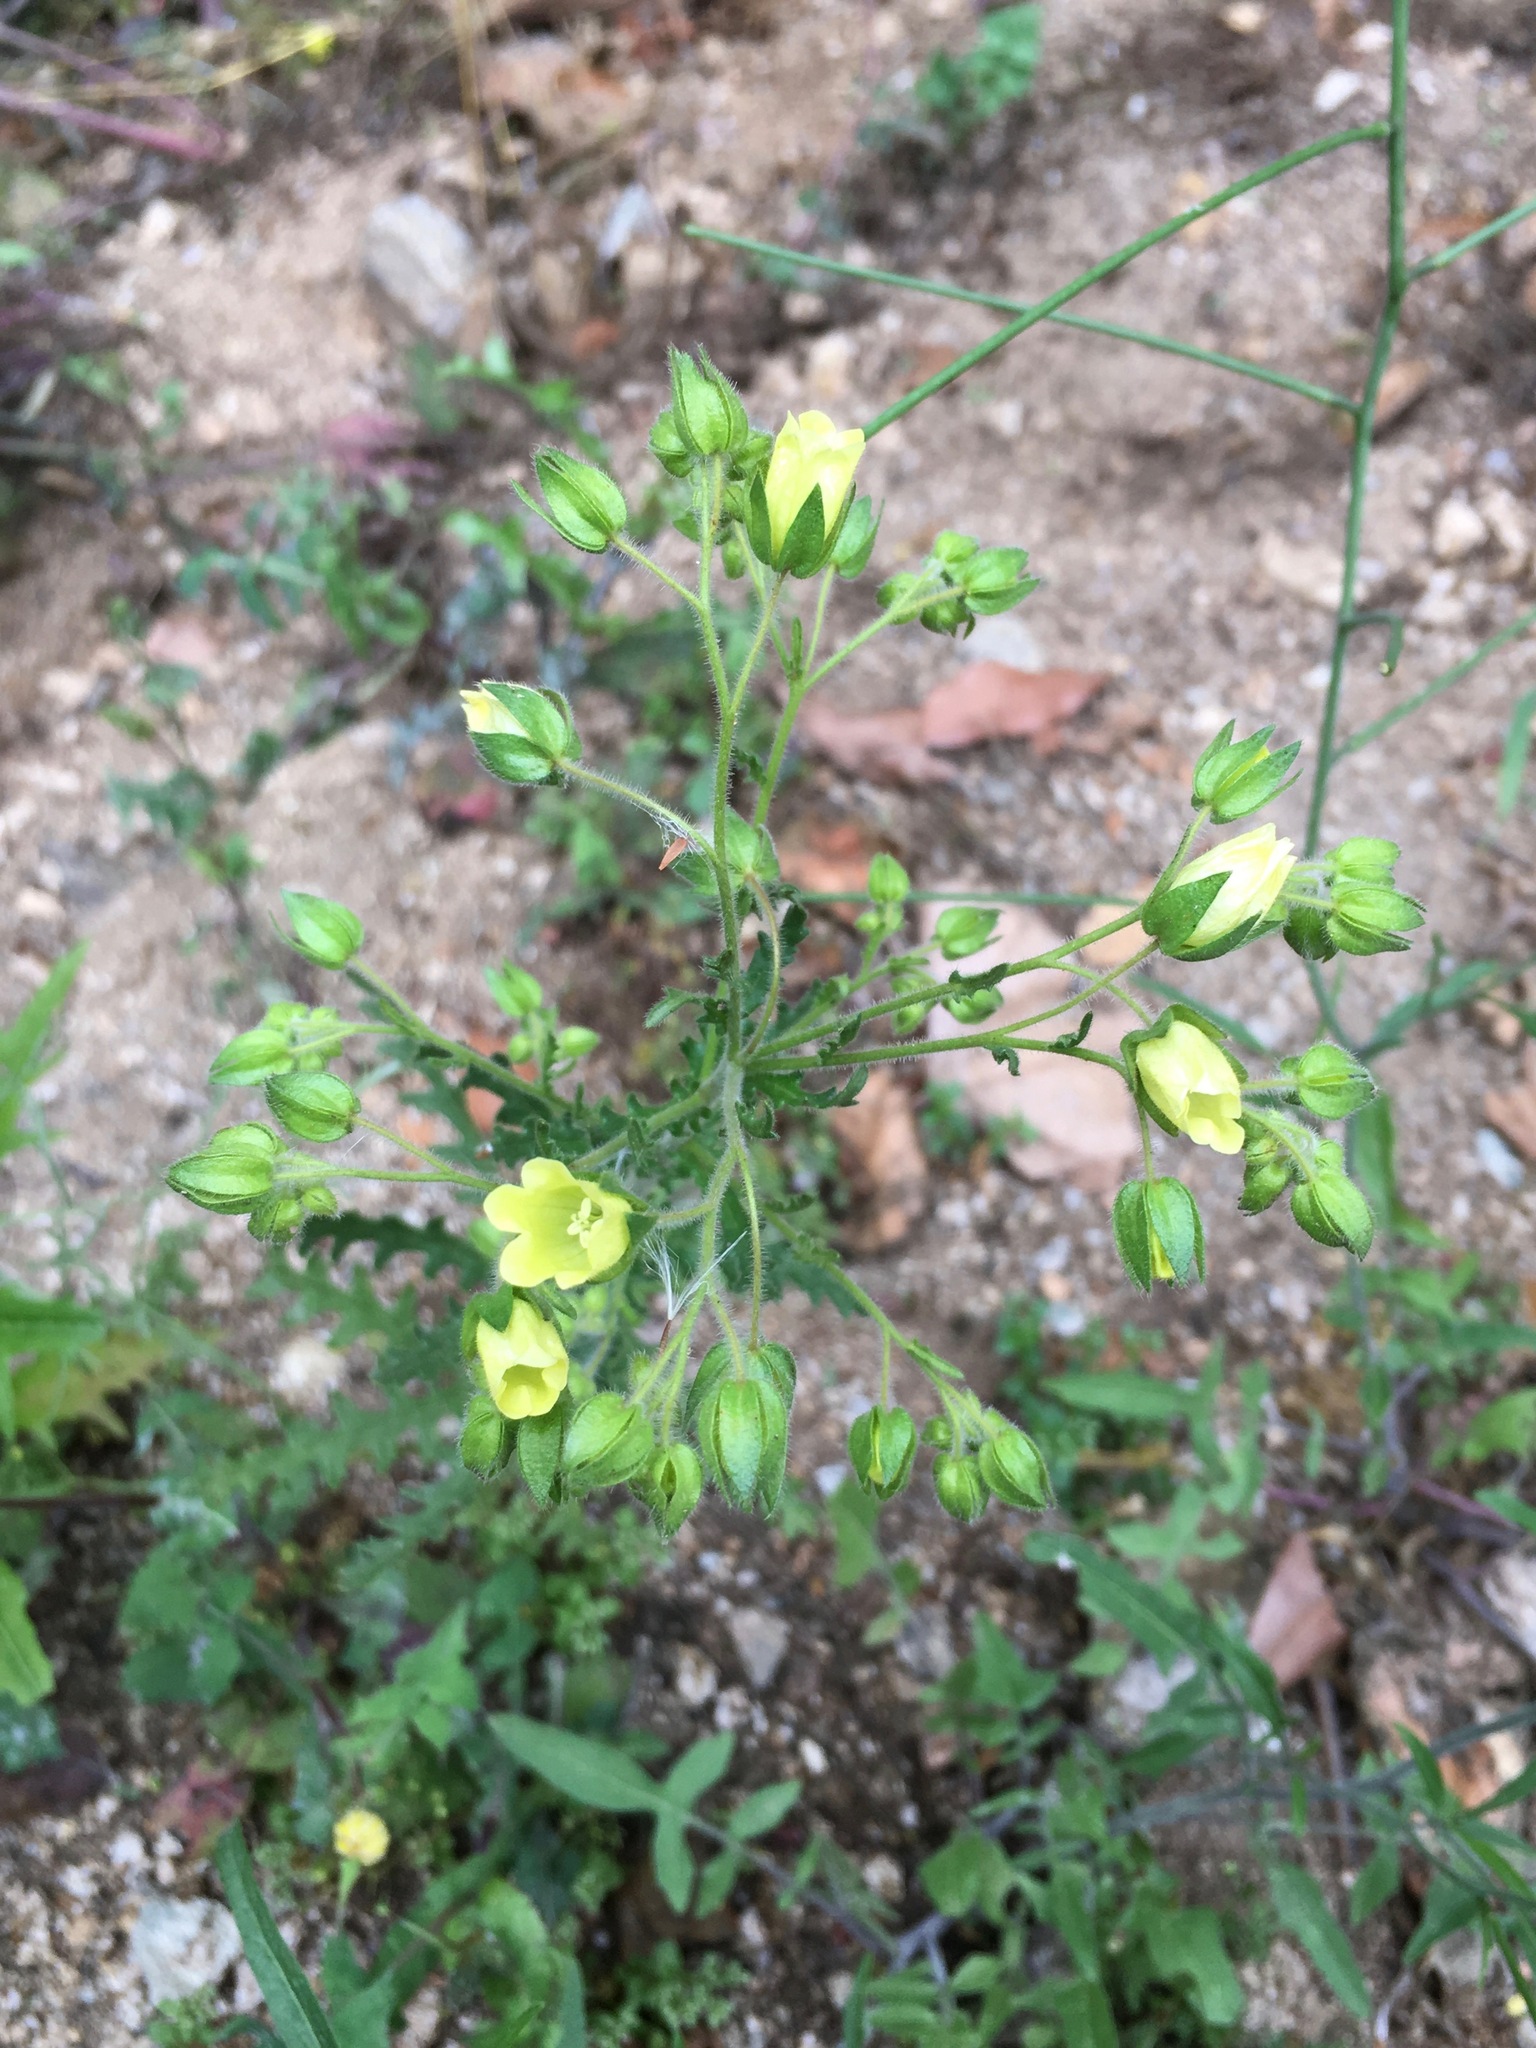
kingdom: Plantae
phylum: Tracheophyta
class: Magnoliopsida
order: Boraginales
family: Hydrophyllaceae
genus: Emmenanthe
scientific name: Emmenanthe penduliflora
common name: Whispering-bells
